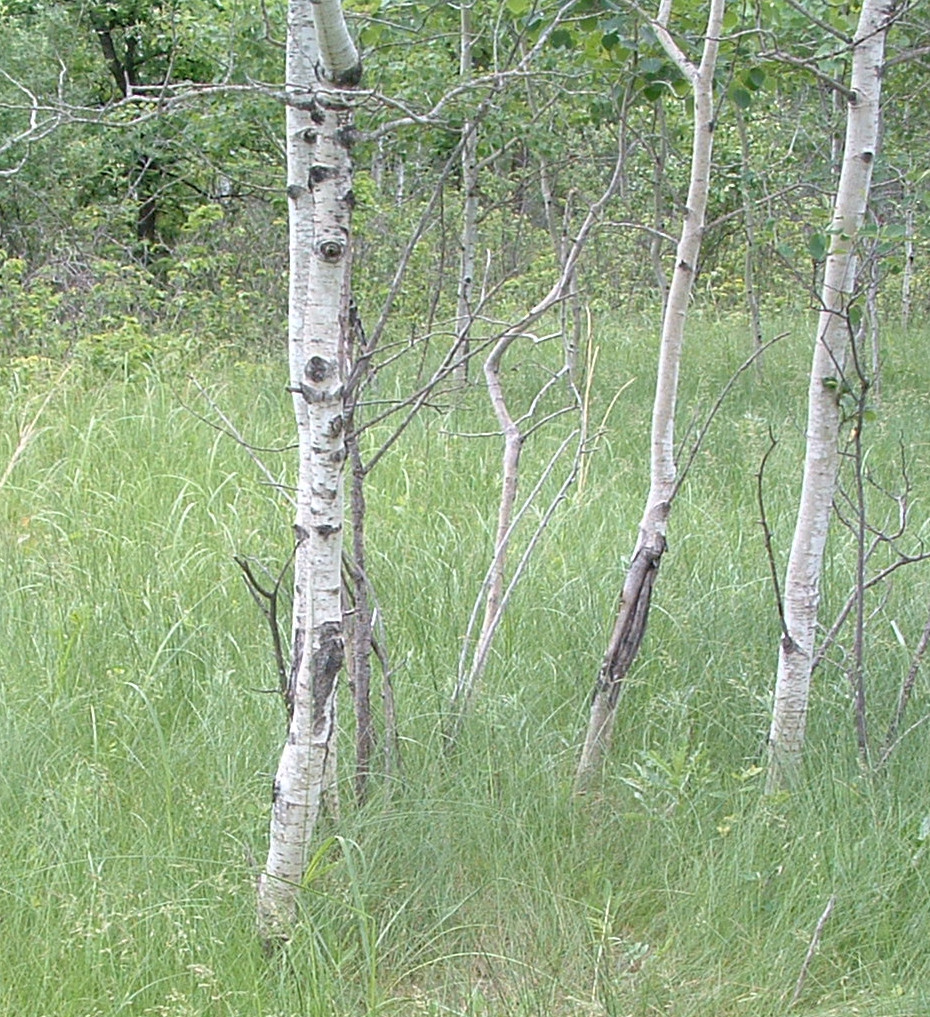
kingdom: Plantae
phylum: Tracheophyta
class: Magnoliopsida
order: Malpighiales
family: Salicaceae
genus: Populus
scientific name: Populus tremuloides
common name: Quaking aspen
